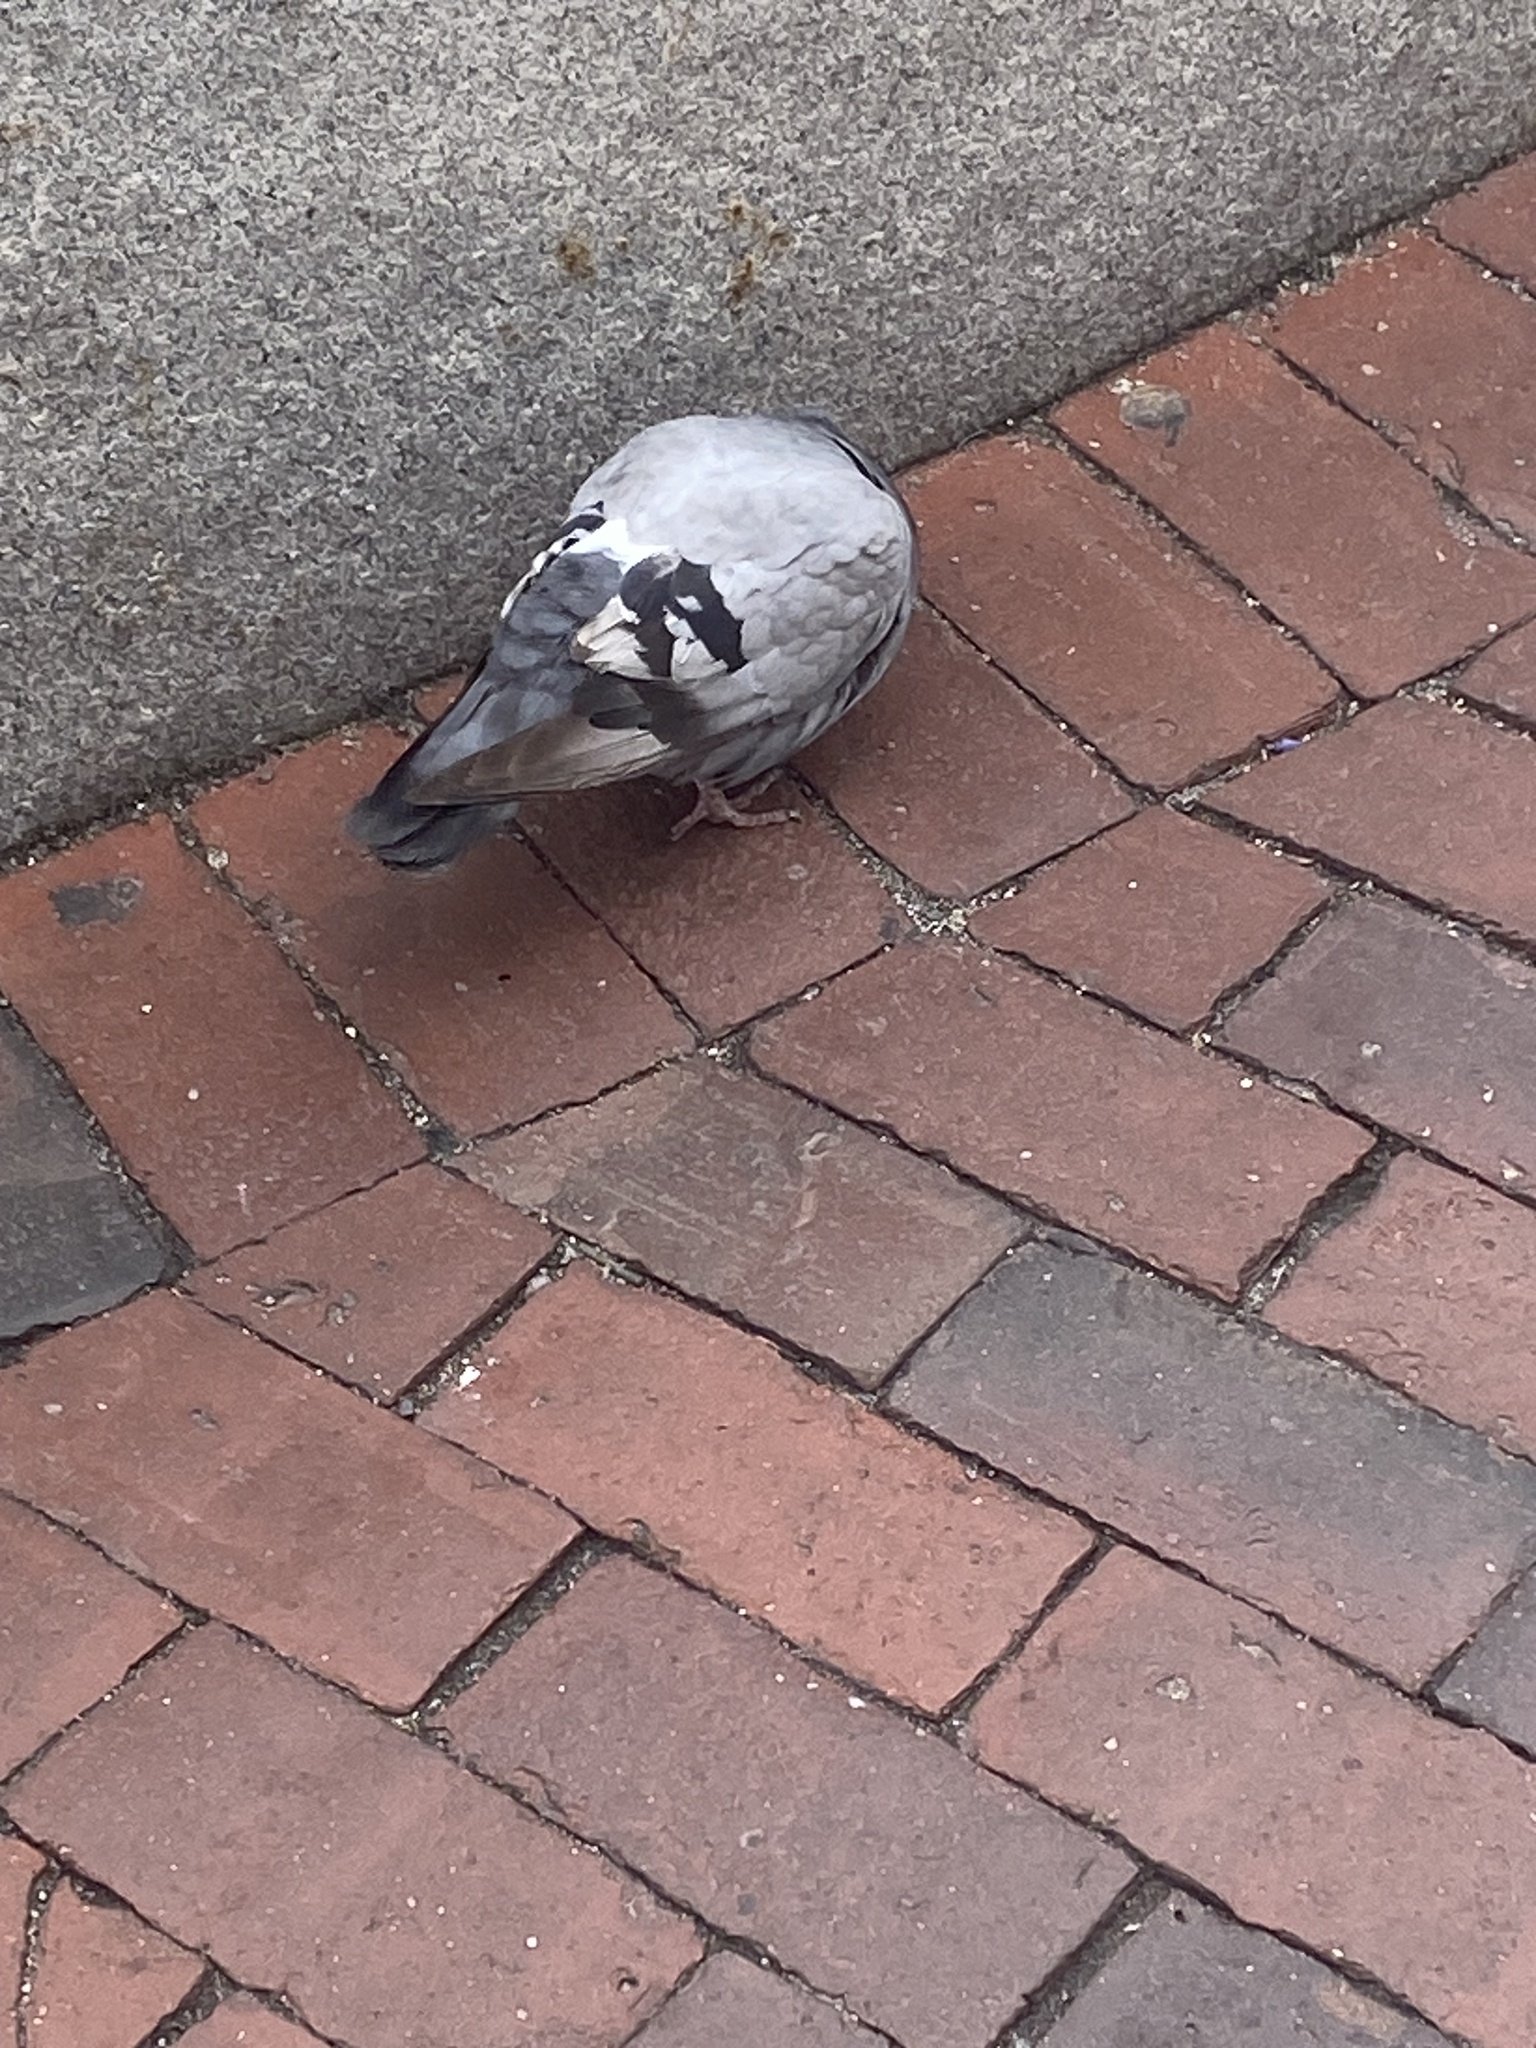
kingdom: Animalia
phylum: Chordata
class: Aves
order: Columbiformes
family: Columbidae
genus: Columba
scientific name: Columba livia
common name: Rock pigeon
